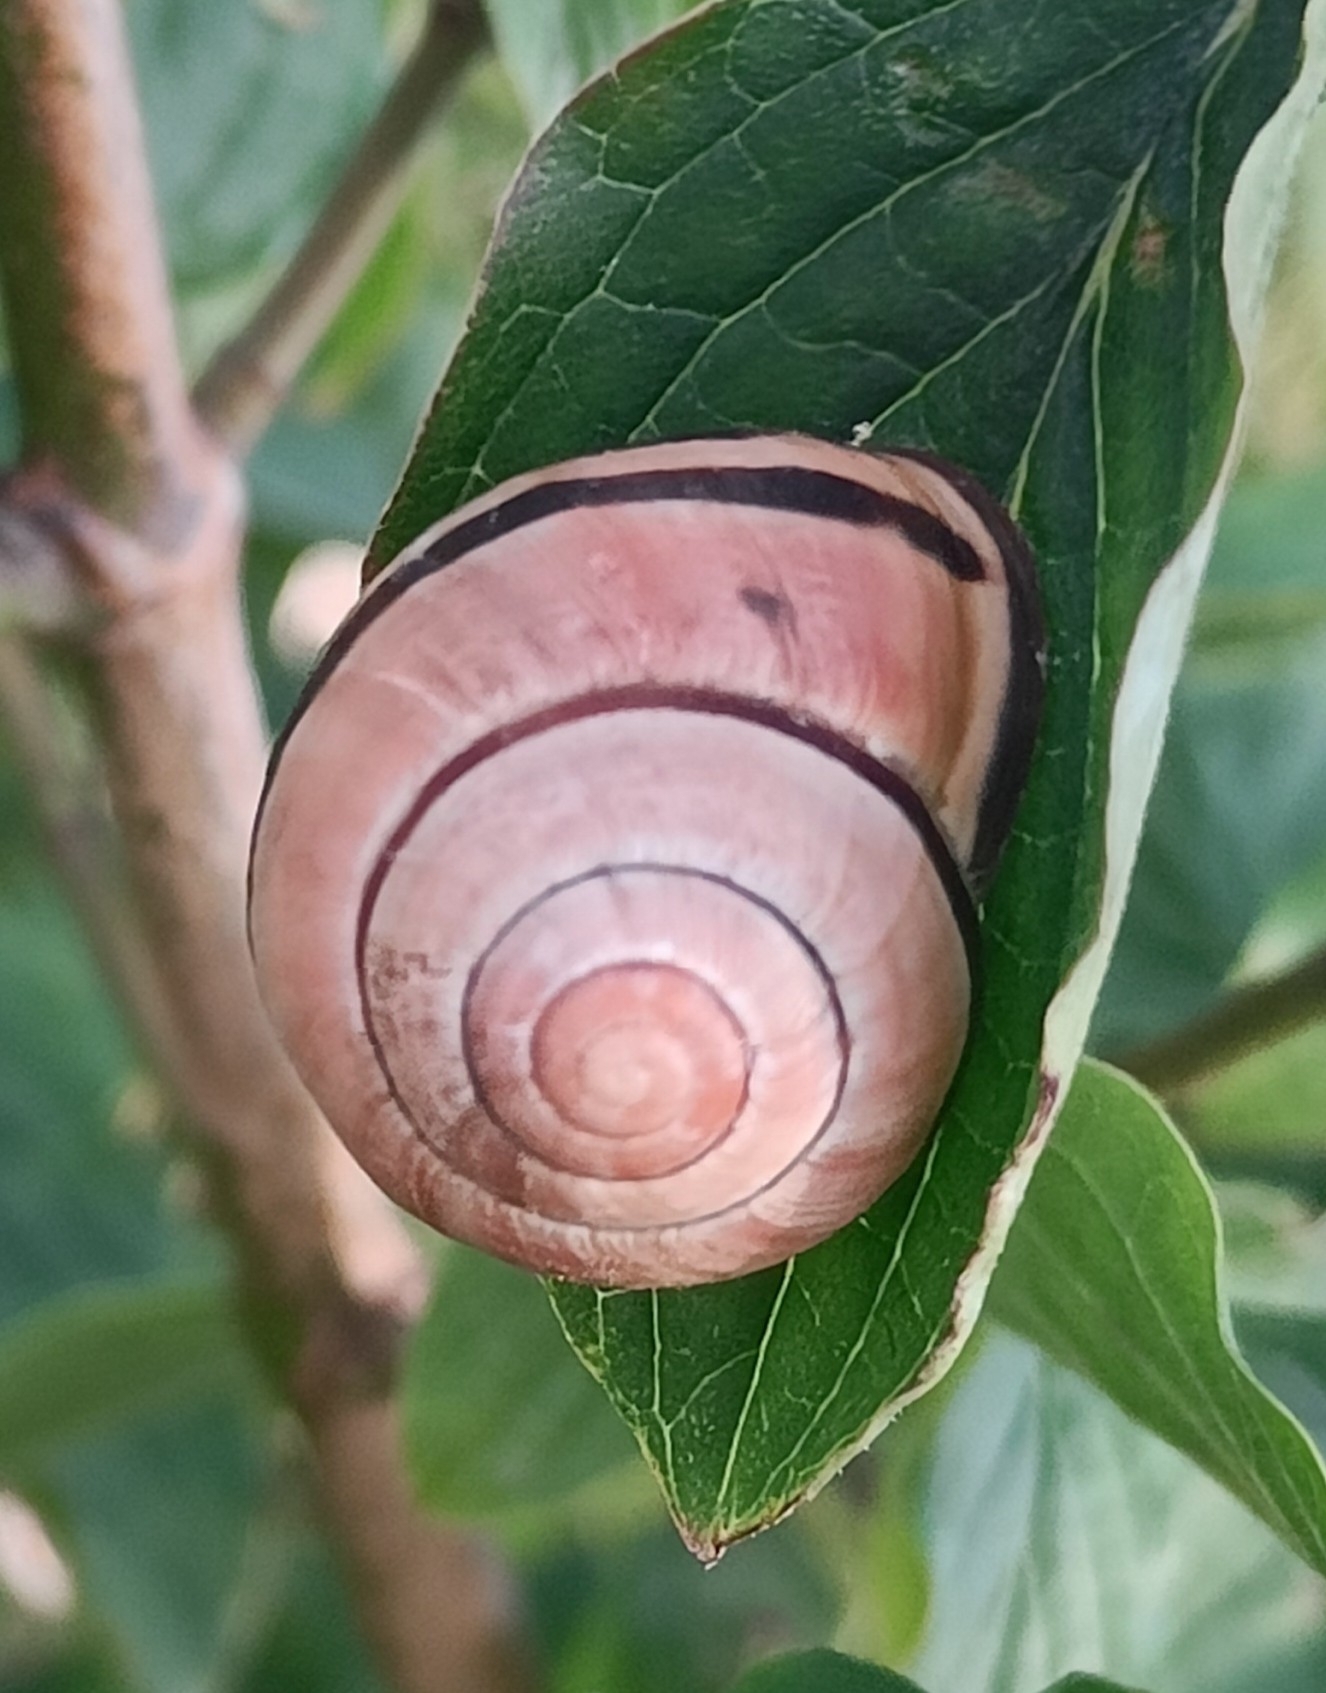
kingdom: Animalia
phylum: Mollusca
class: Gastropoda
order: Stylommatophora
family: Helicidae
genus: Cepaea
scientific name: Cepaea nemoralis
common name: Grovesnail
